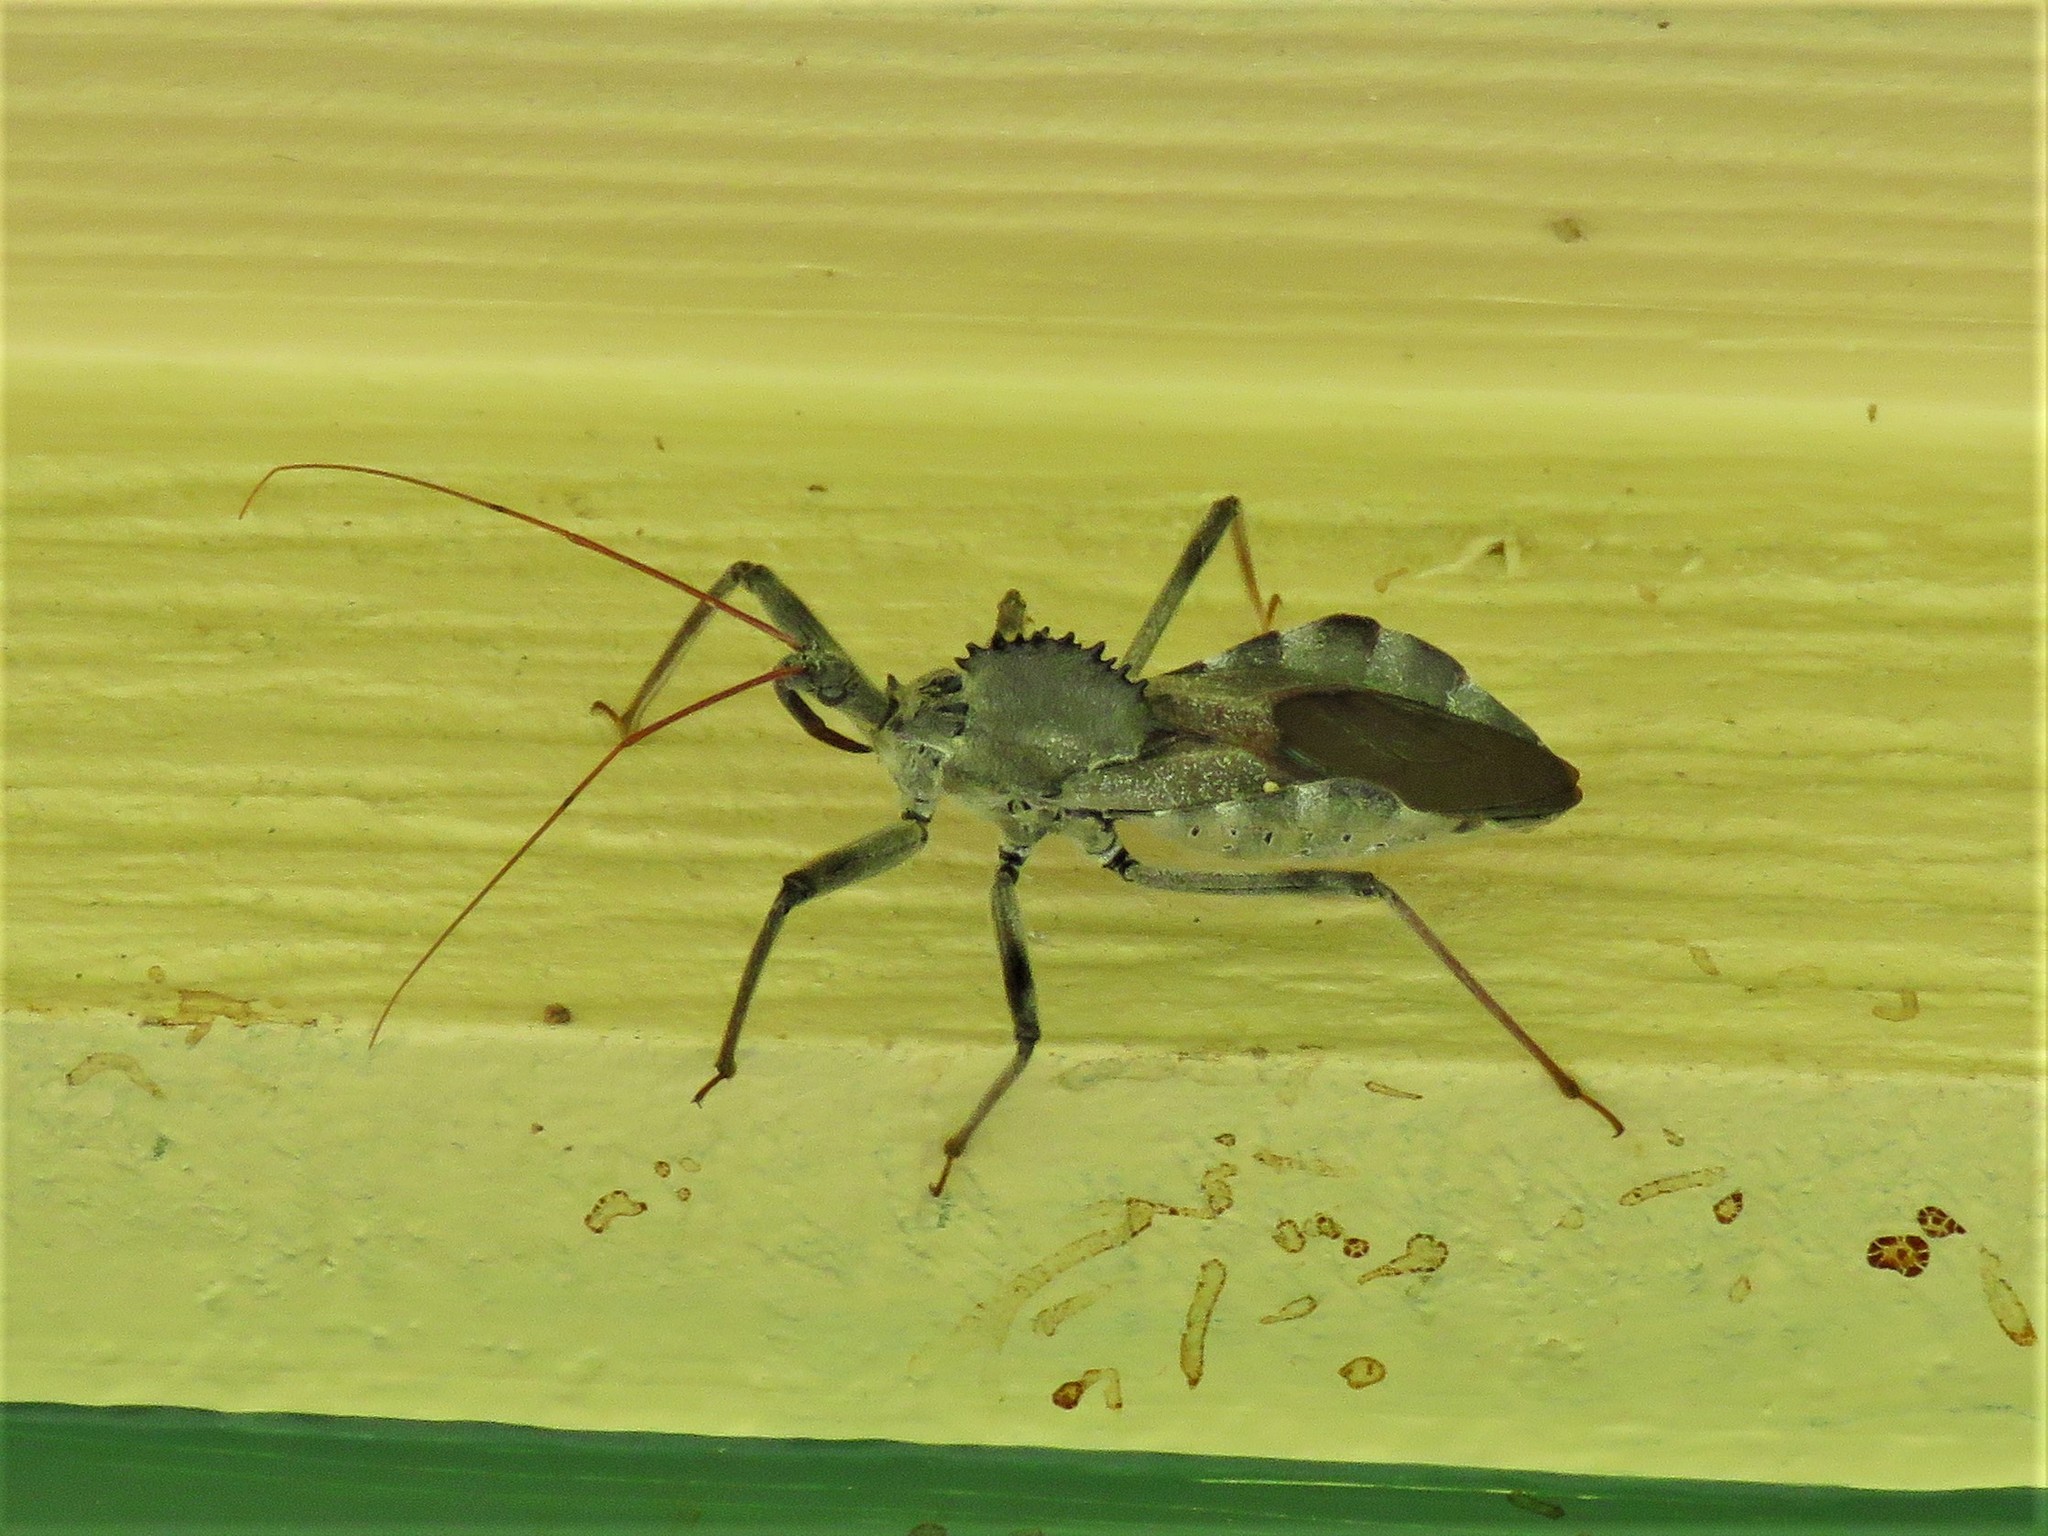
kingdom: Animalia
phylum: Arthropoda
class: Insecta
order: Hemiptera
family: Reduviidae
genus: Arilus
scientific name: Arilus cristatus
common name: North american wheel bug
